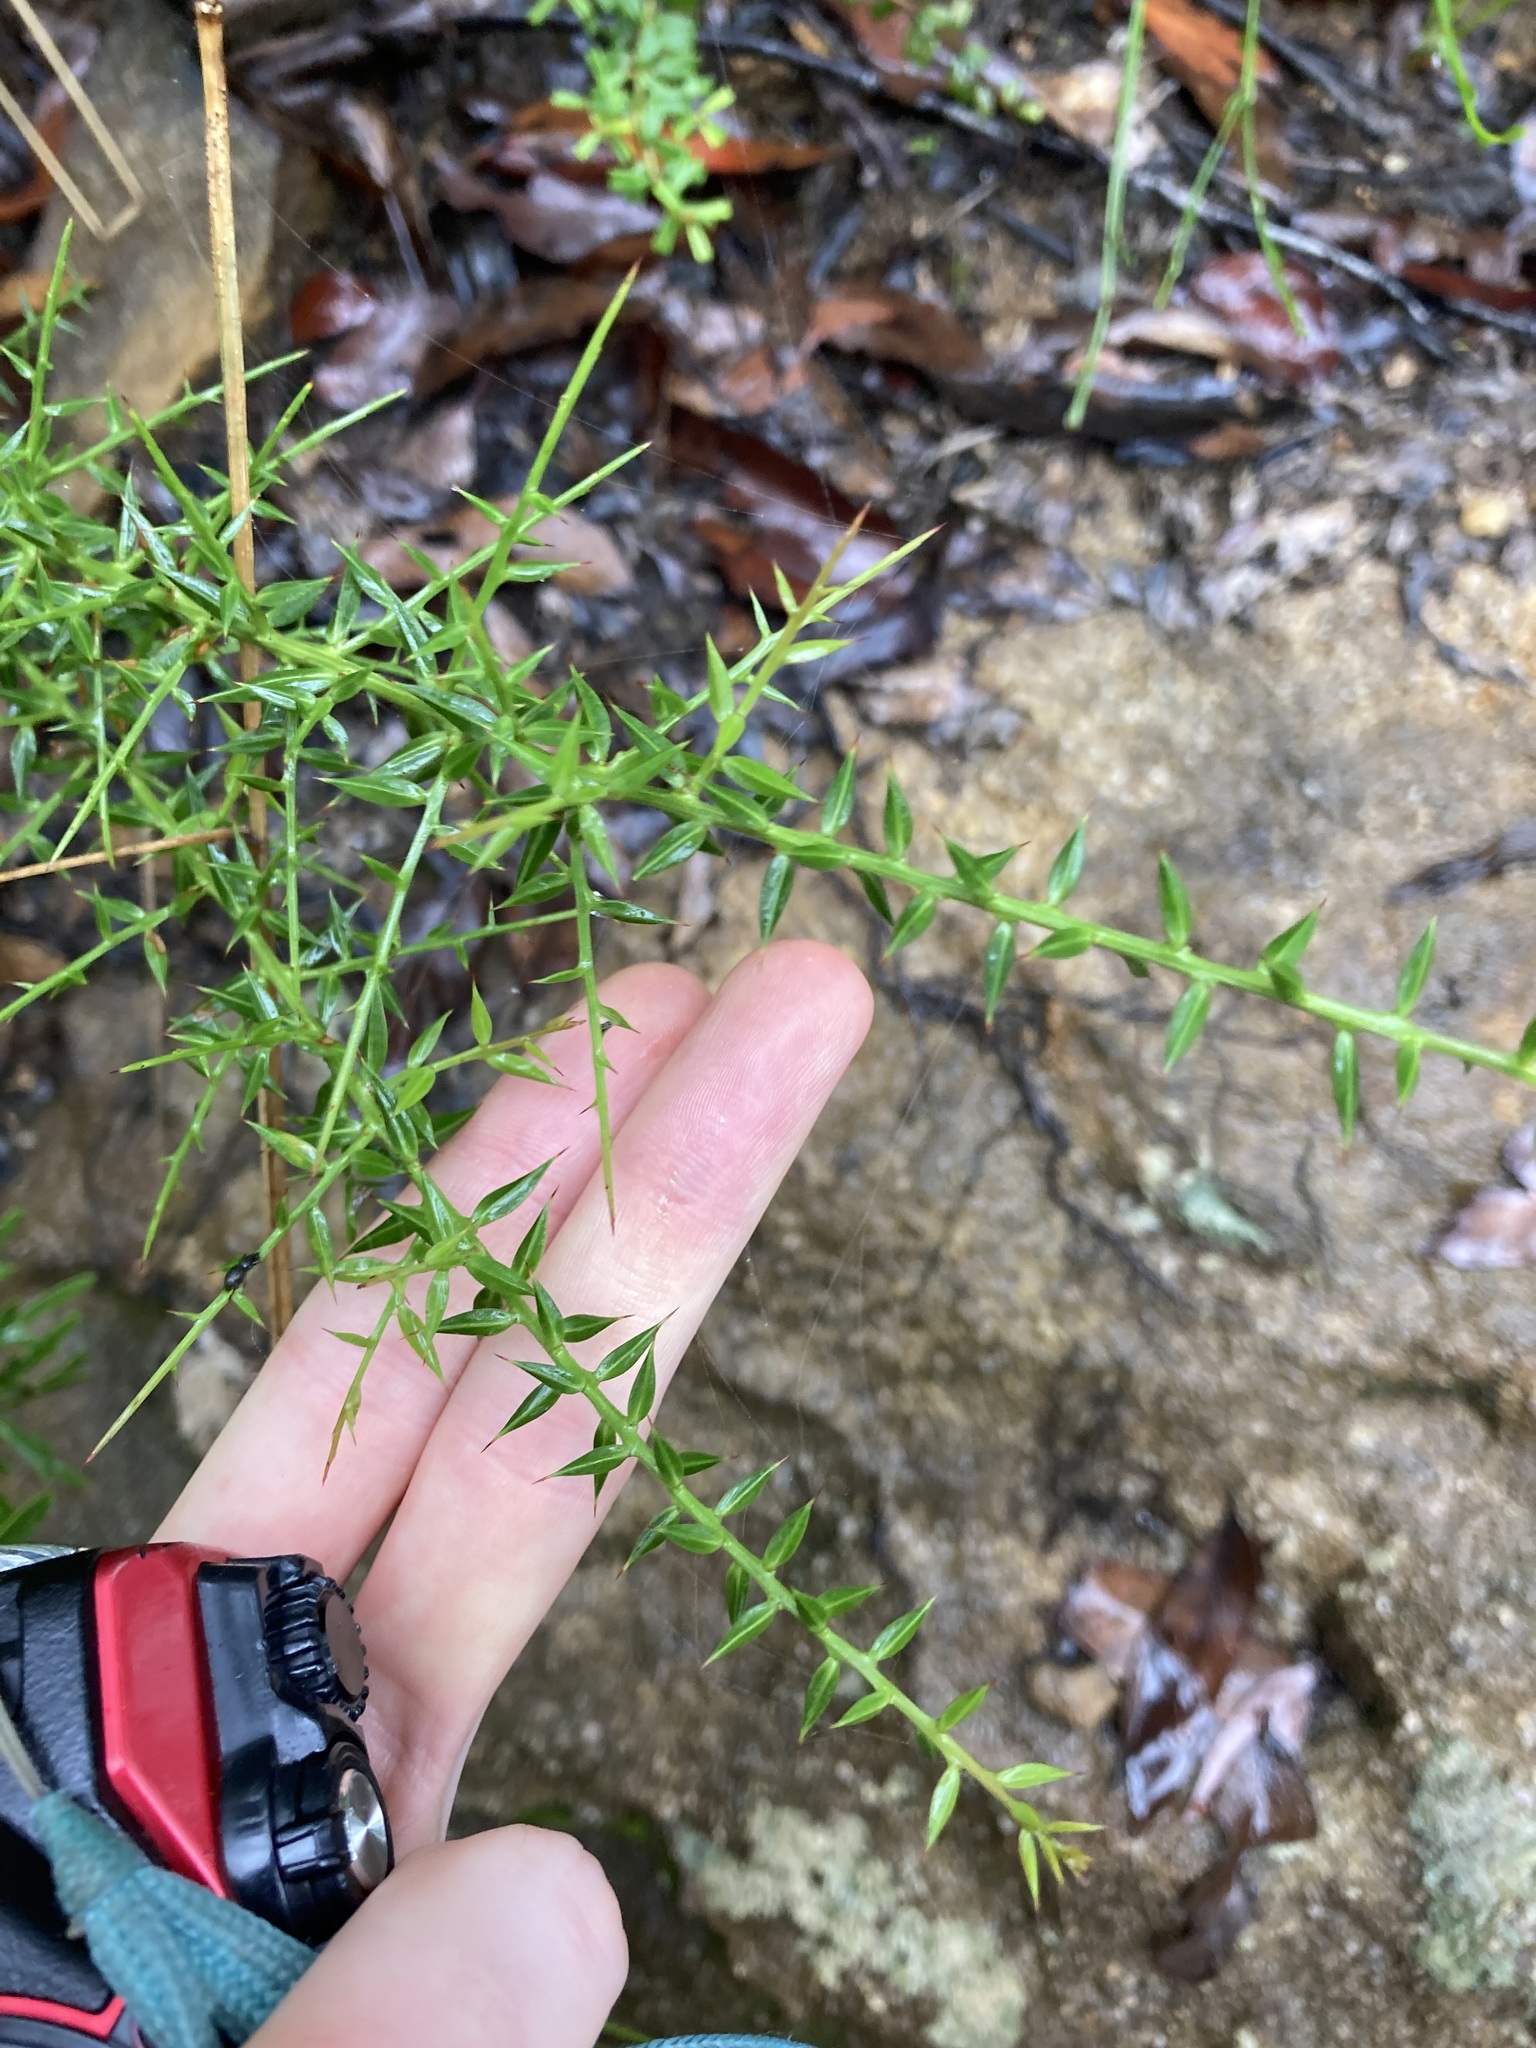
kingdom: Plantae
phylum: Tracheophyta
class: Magnoliopsida
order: Fabales
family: Fabaceae
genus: Daviesia
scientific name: Daviesia ulicifolia
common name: Gorse bitter-pea
